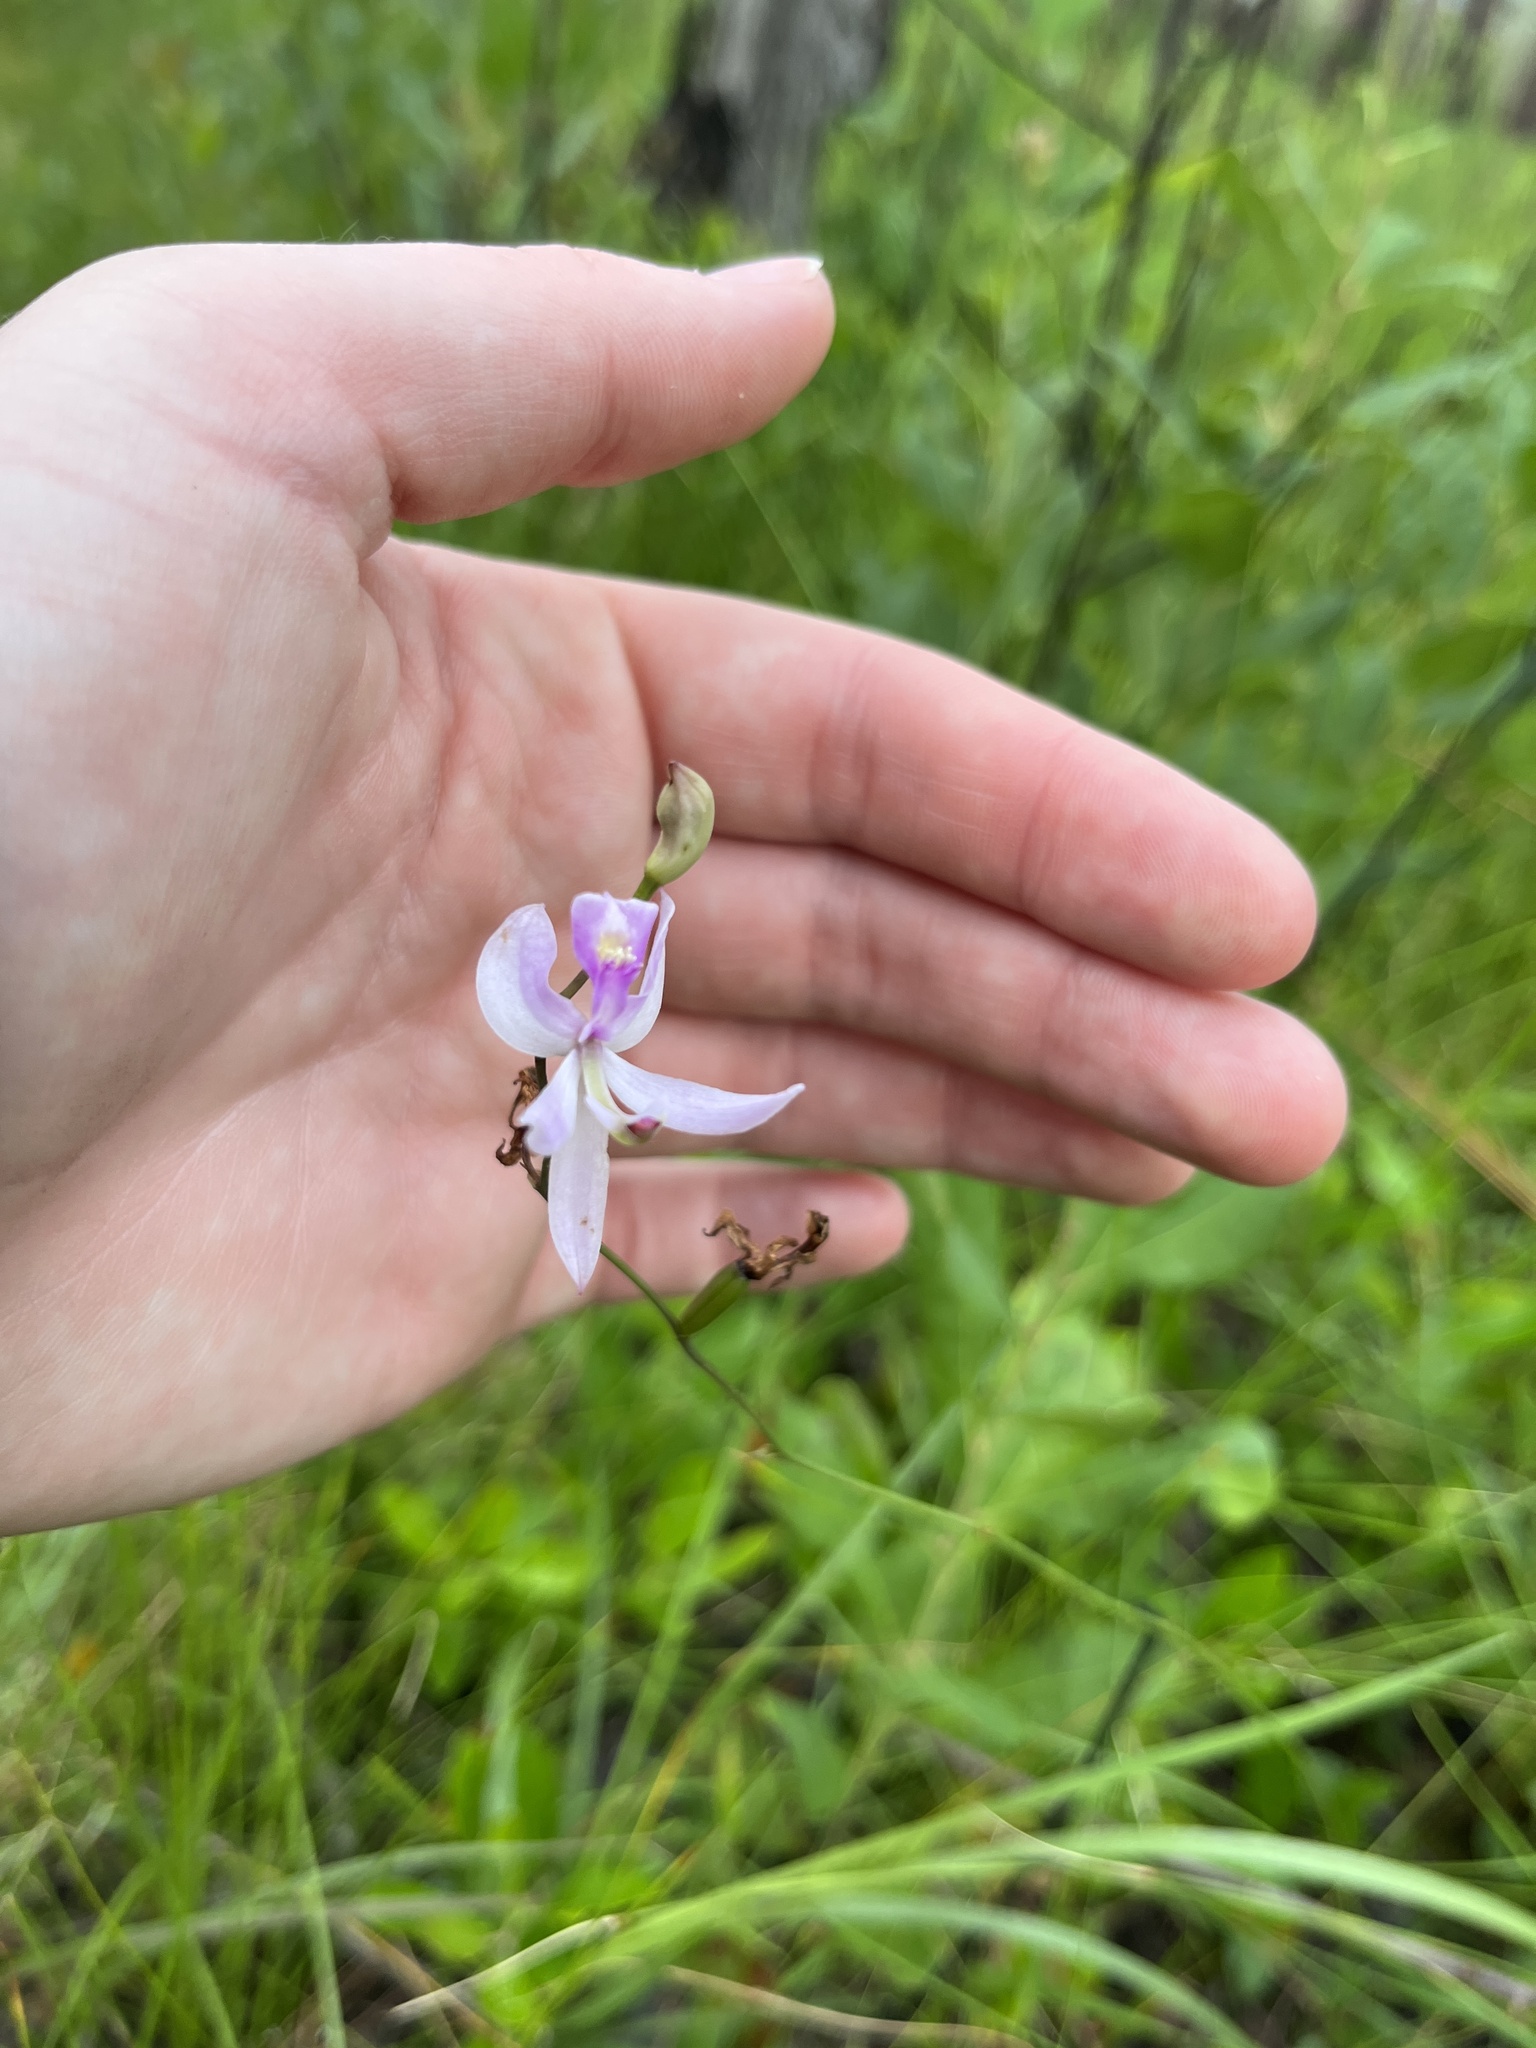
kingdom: Plantae
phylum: Tracheophyta
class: Liliopsida
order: Asparagales
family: Orchidaceae
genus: Calopogon
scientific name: Calopogon pallidus
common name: Pale grasspink
